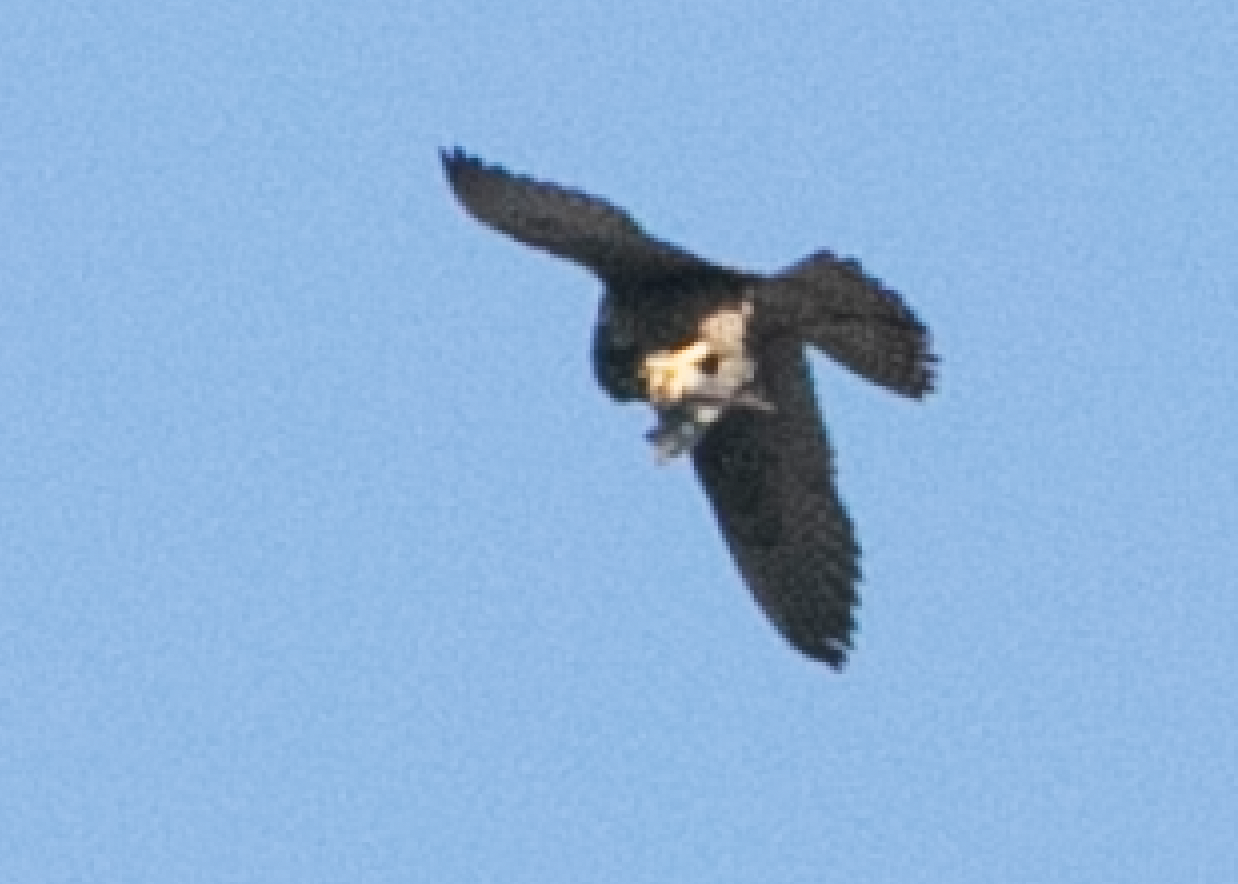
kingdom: Animalia
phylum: Chordata
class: Aves
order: Falconiformes
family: Falconidae
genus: Falco
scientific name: Falco peregrinus
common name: Peregrine falcon
